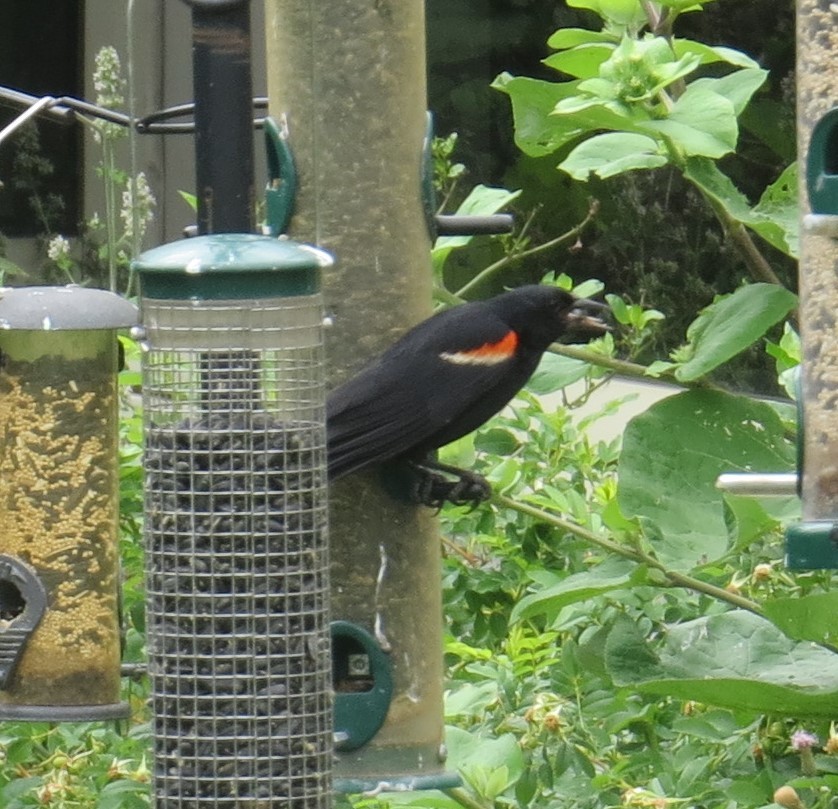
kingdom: Animalia
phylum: Chordata
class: Aves
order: Passeriformes
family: Icteridae
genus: Agelaius
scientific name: Agelaius phoeniceus
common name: Red-winged blackbird
